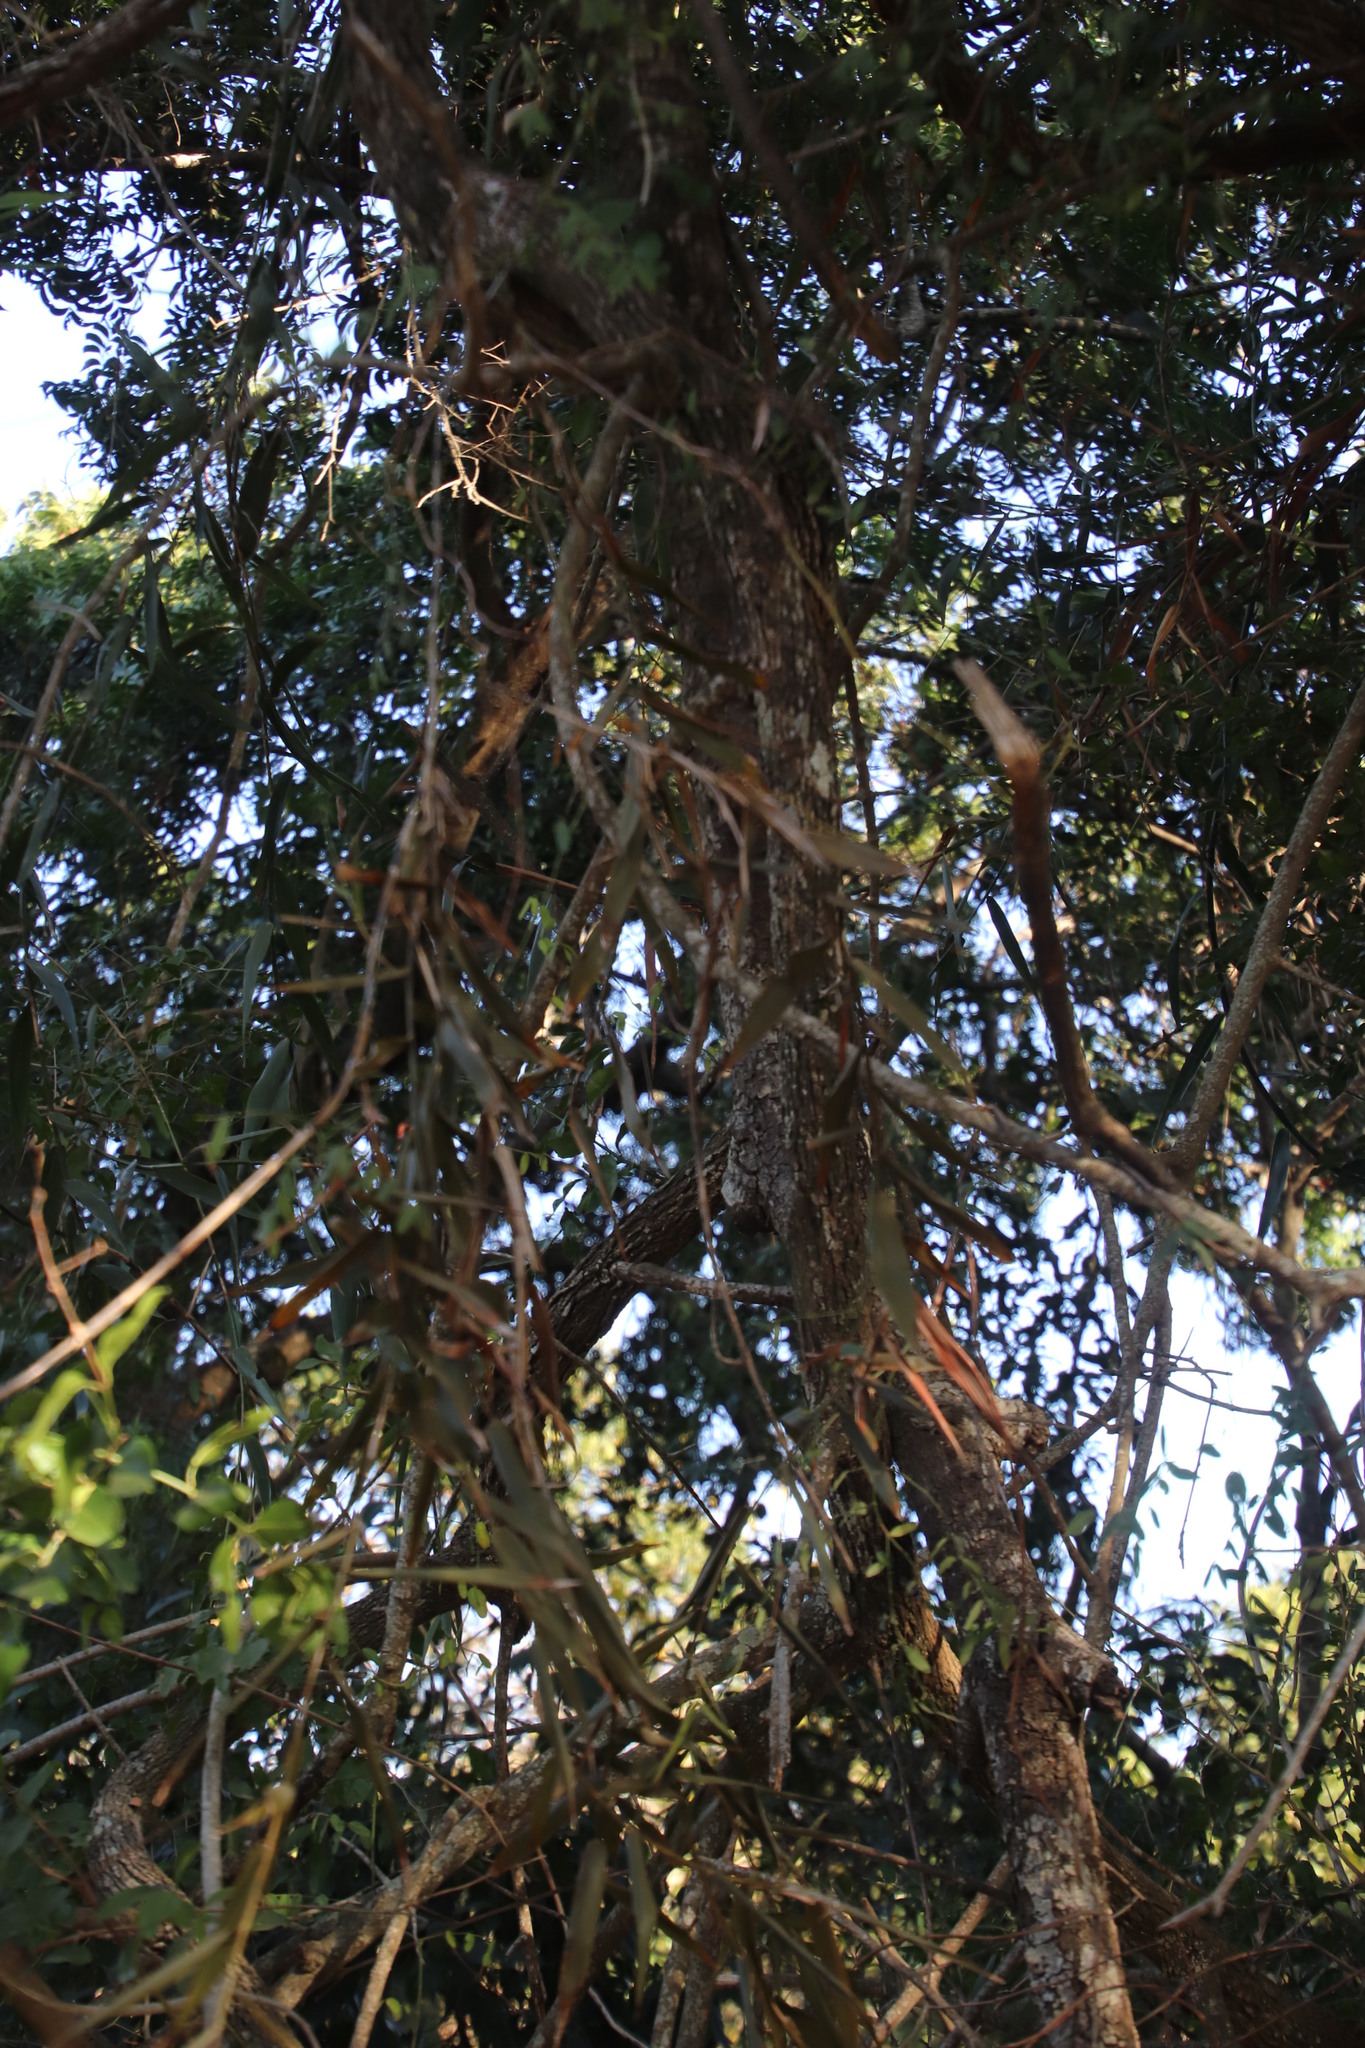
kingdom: Plantae
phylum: Tracheophyta
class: Liliopsida
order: Poales
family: Flagellariaceae
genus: Flagellaria
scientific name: Flagellaria guineensis
